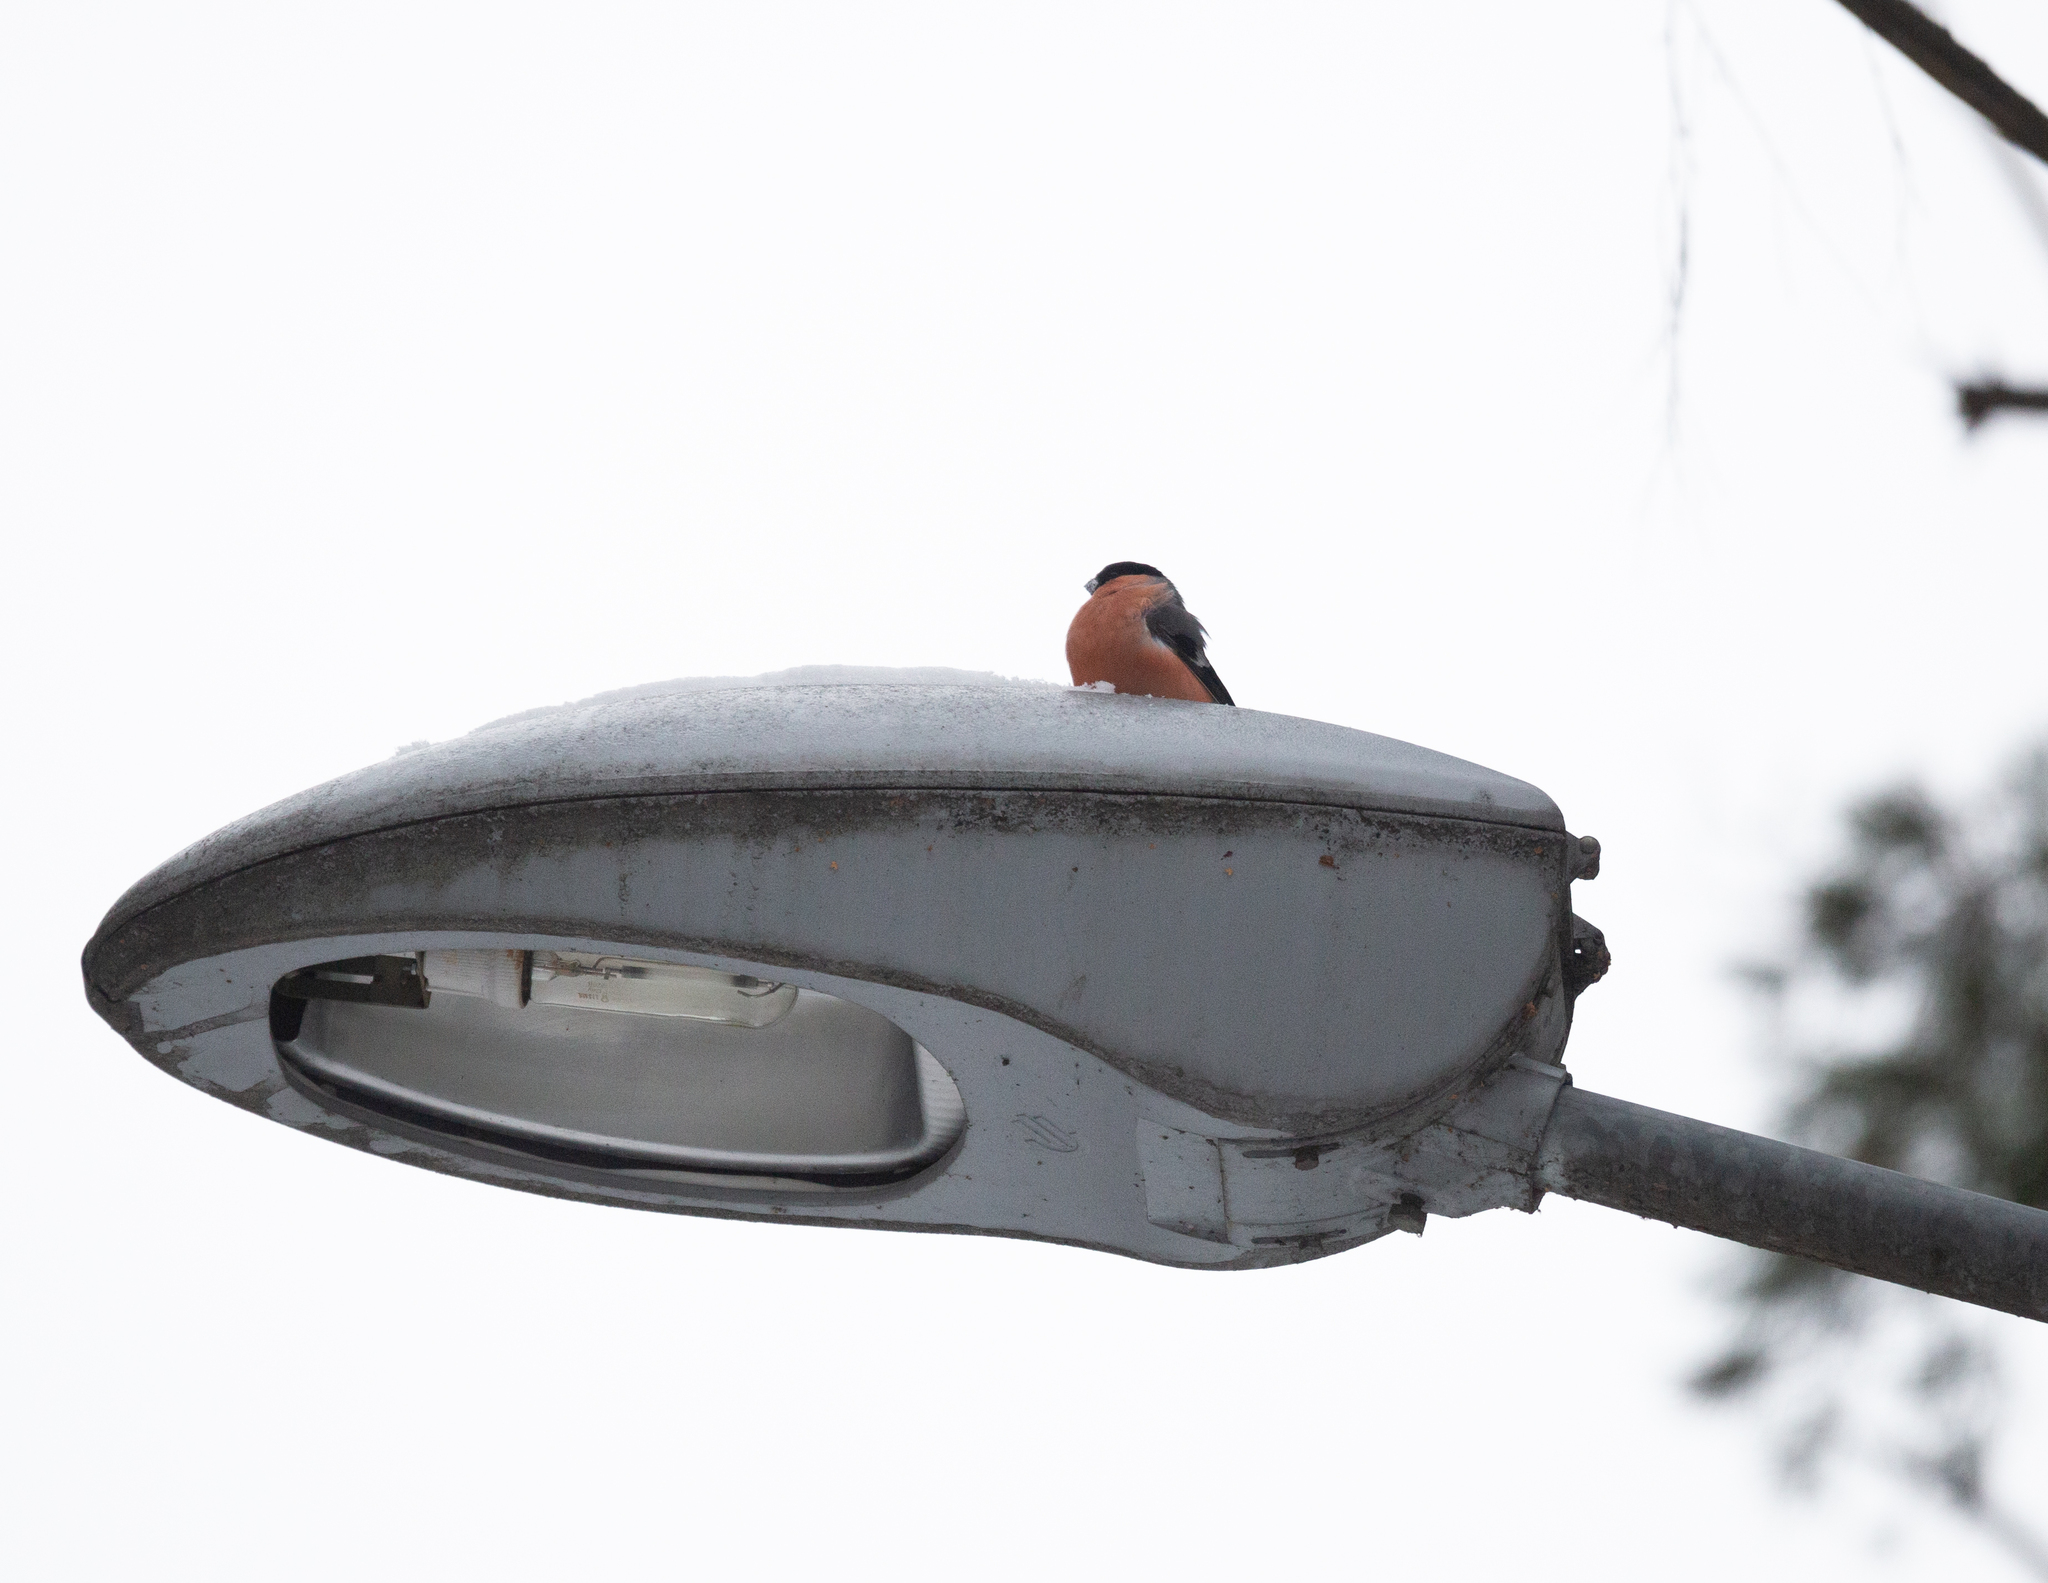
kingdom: Animalia
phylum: Chordata
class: Aves
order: Passeriformes
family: Fringillidae
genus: Pyrrhula
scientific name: Pyrrhula pyrrhula
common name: Eurasian bullfinch
